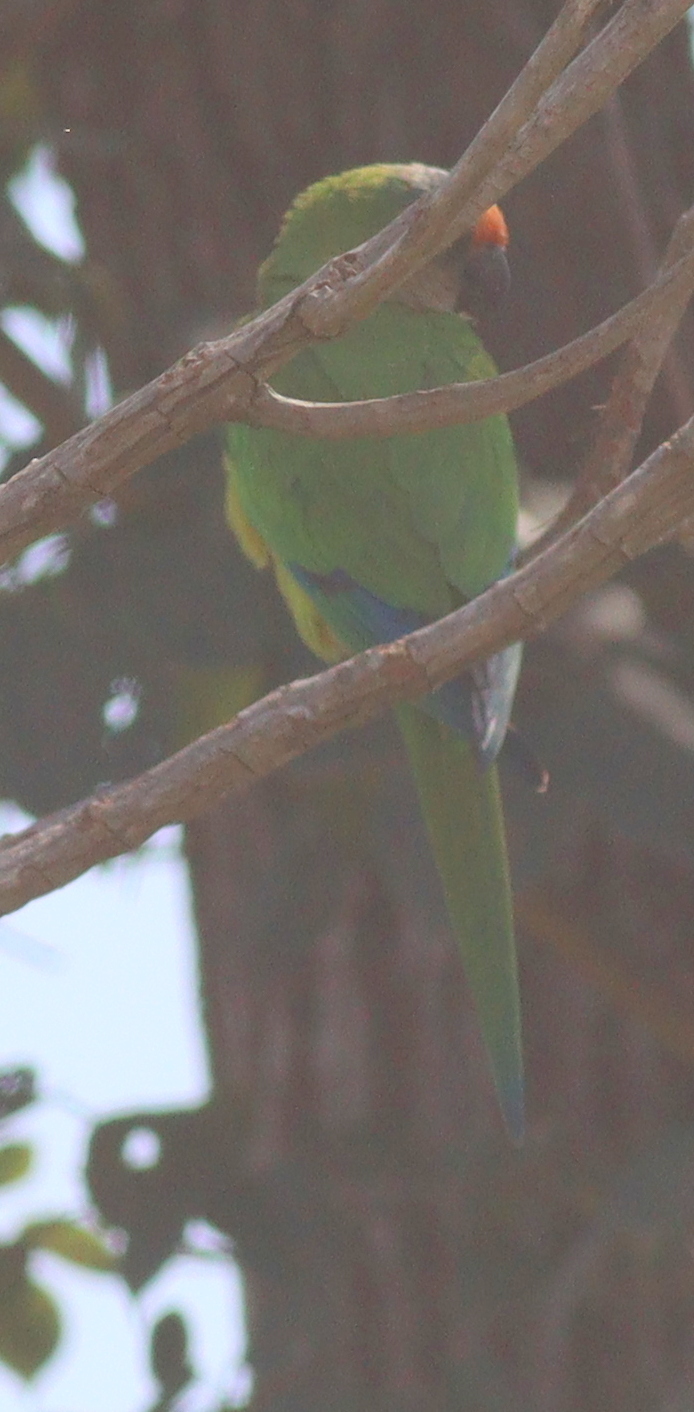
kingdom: Animalia
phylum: Chordata
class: Aves
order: Psittaciformes
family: Psittacidae
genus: Aratinga
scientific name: Aratinga aurea
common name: Peach-fronted parakeet
